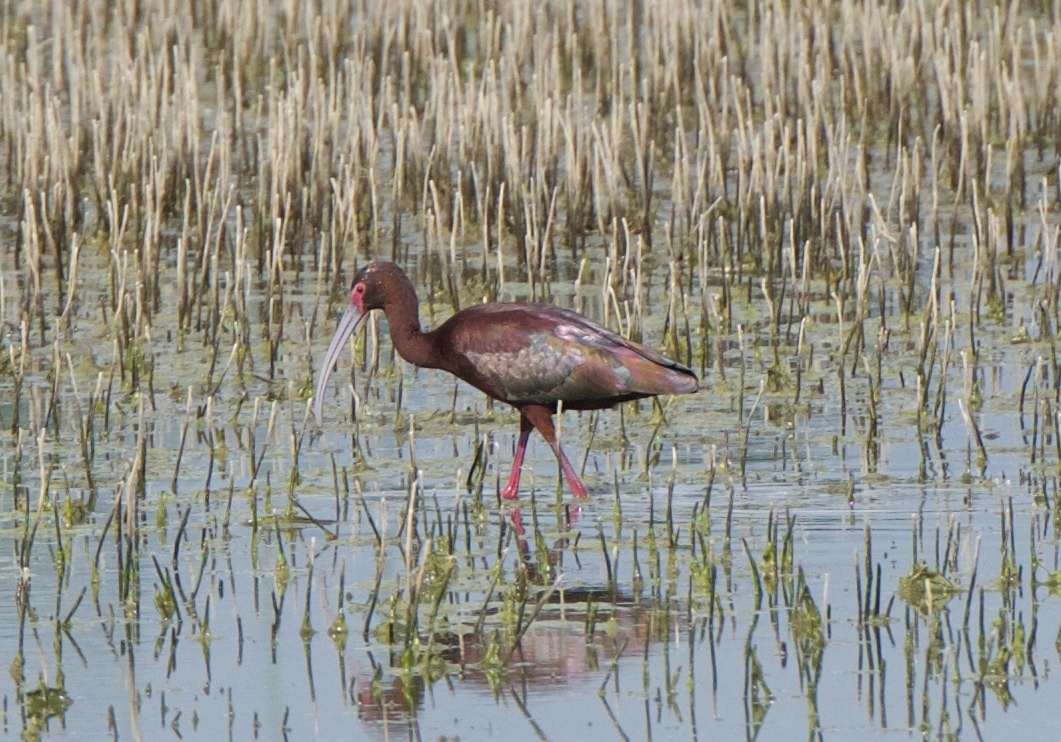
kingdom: Animalia
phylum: Chordata
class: Aves
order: Pelecaniformes
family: Threskiornithidae
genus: Plegadis
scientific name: Plegadis chihi
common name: White-faced ibis
